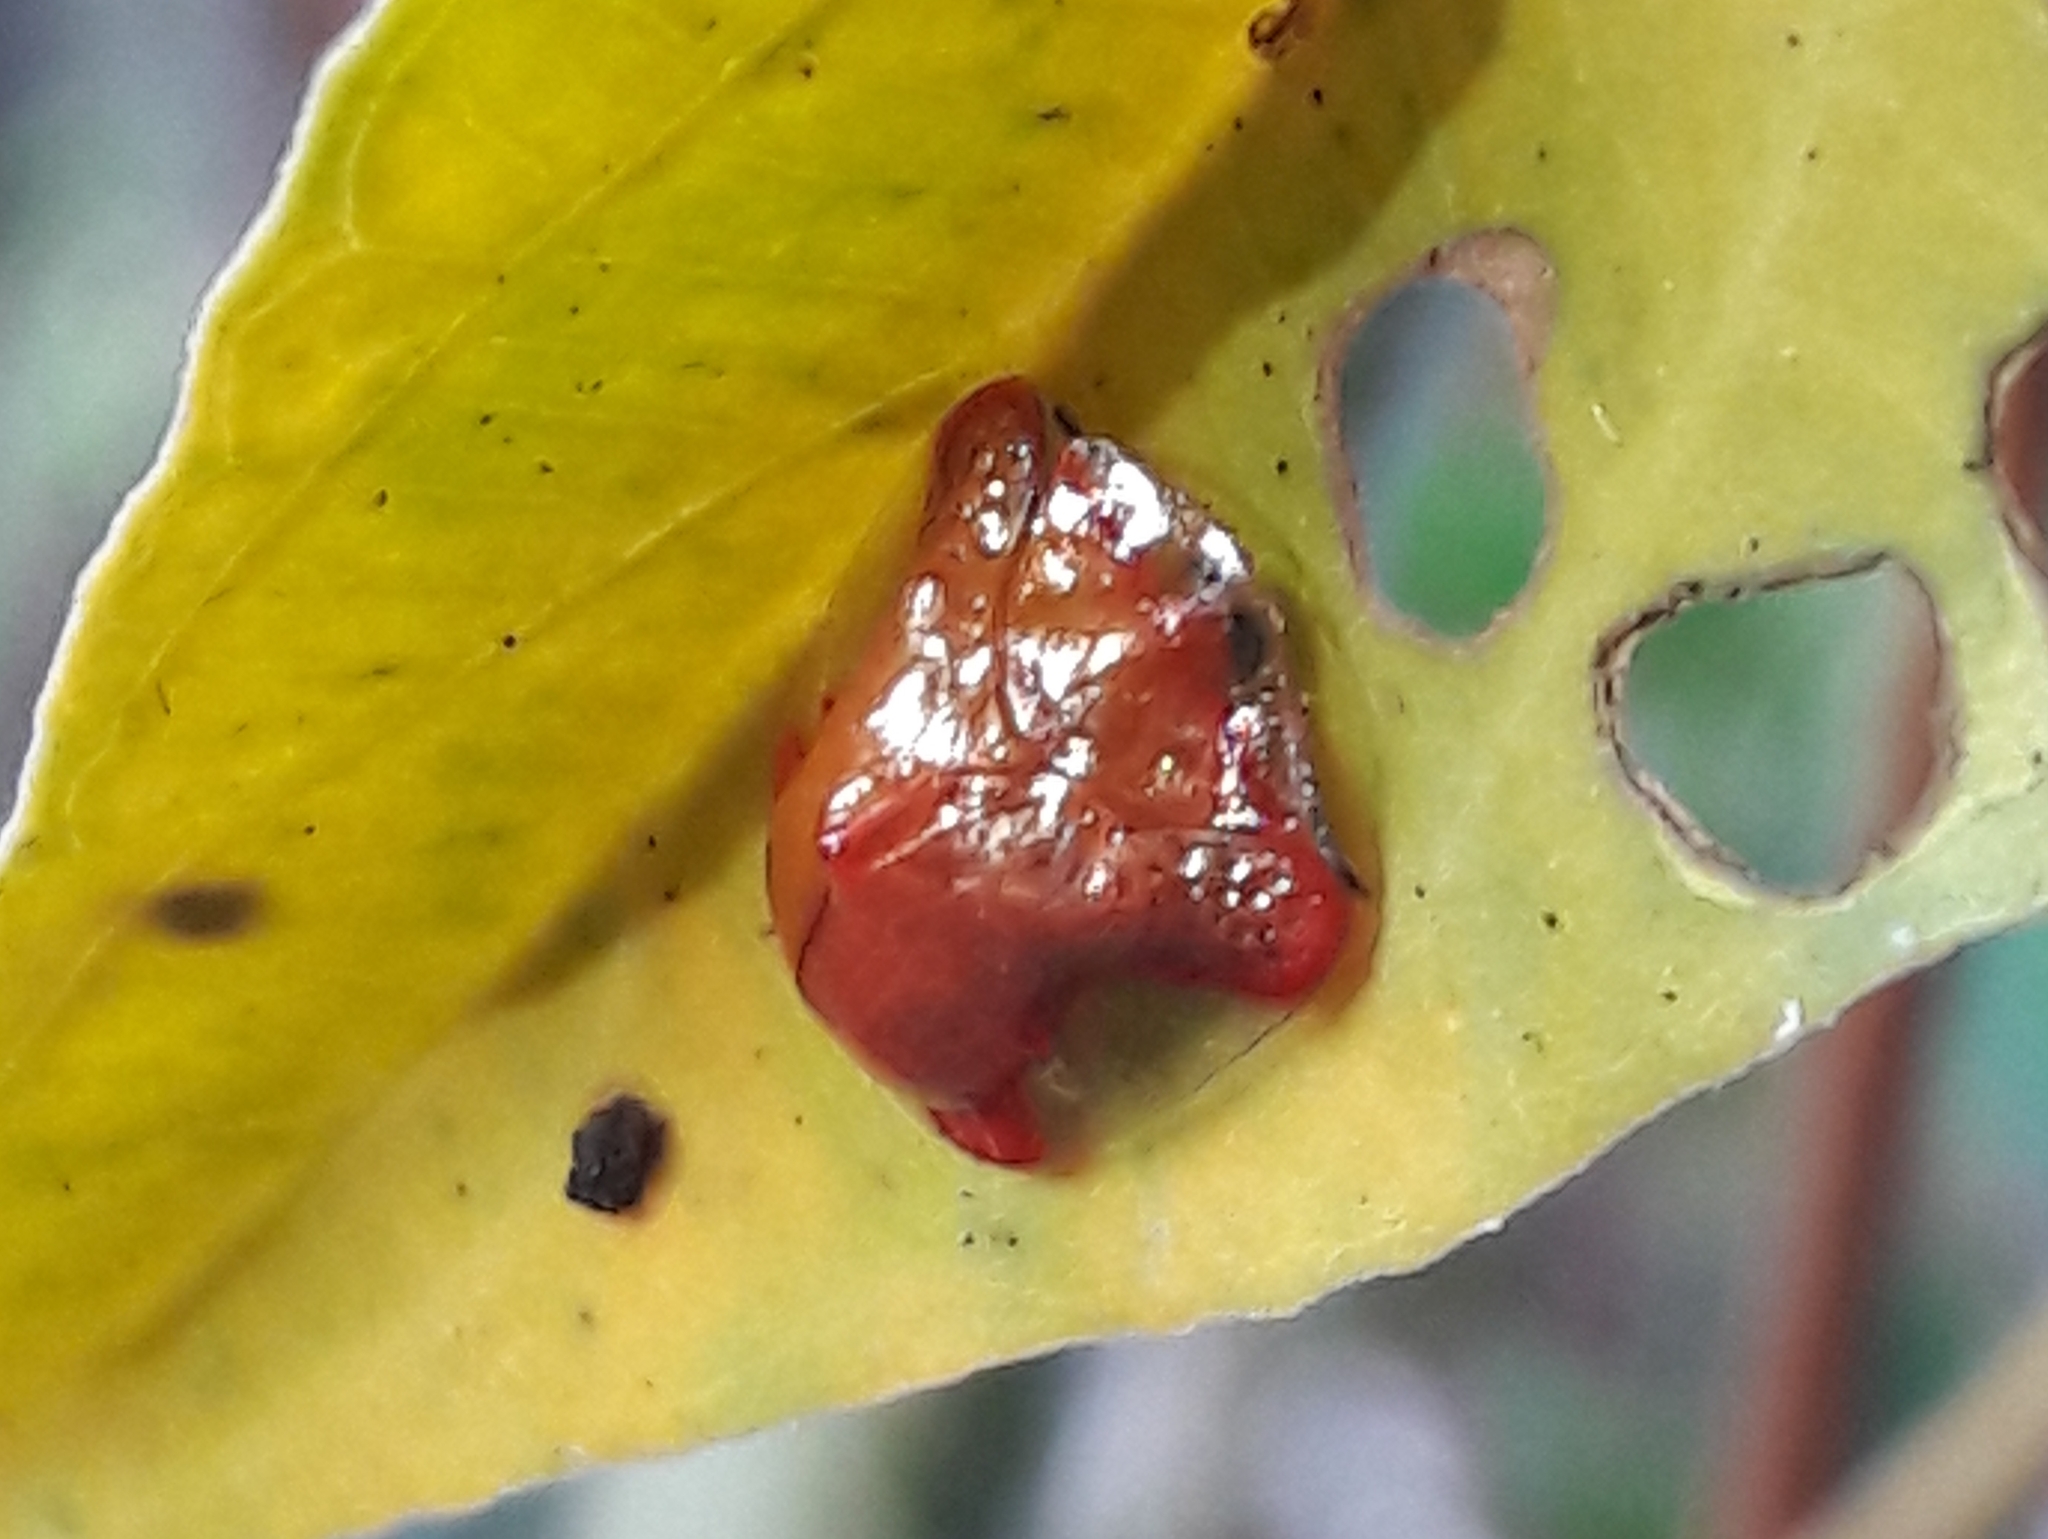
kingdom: Animalia
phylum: Arthropoda
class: Insecta
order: Coleoptera
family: Chrysomelidae
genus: Charidotella
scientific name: Charidotella rubicunda
